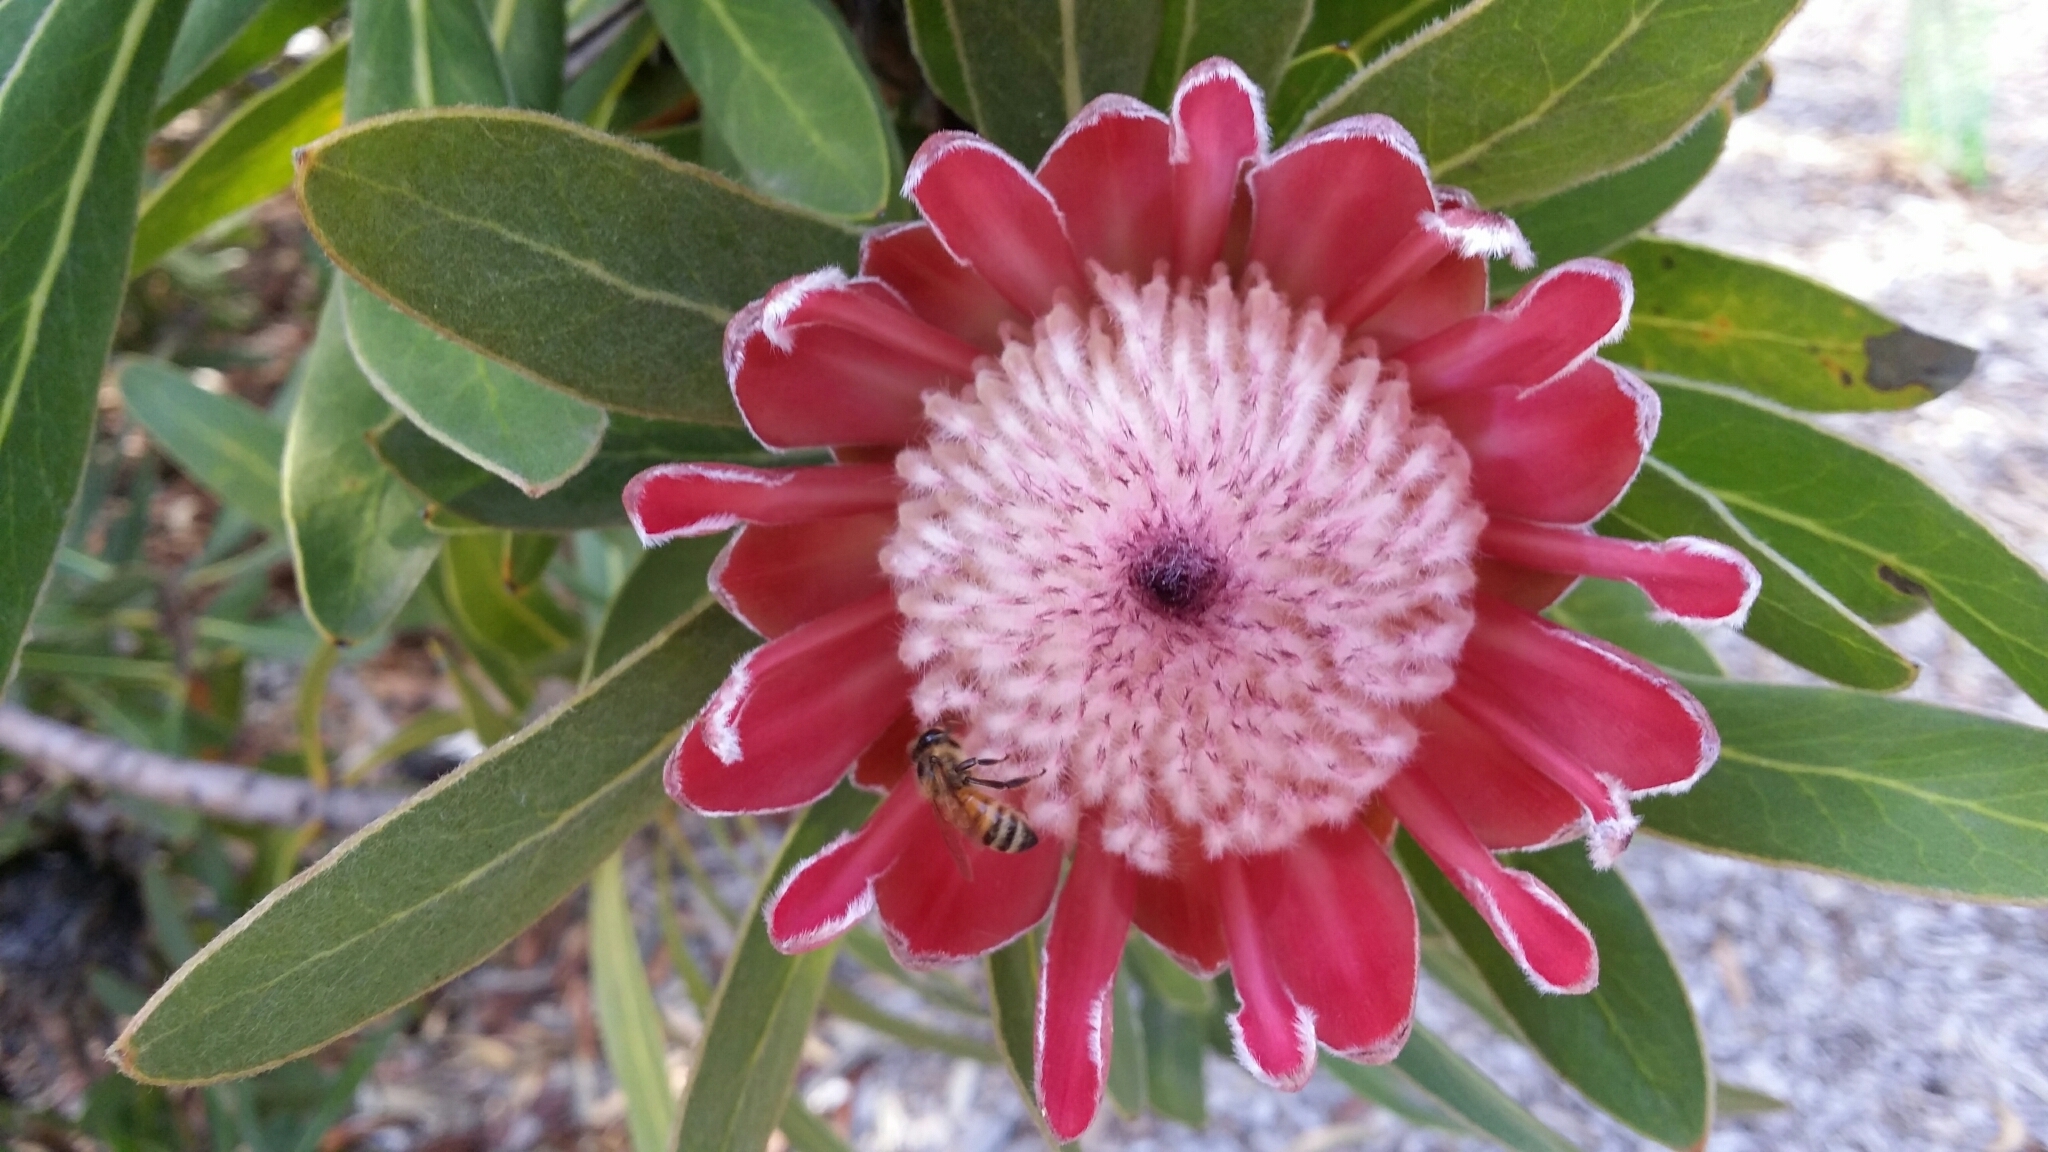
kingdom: Animalia
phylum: Arthropoda
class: Insecta
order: Hymenoptera
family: Apidae
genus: Apis
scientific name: Apis mellifera
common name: Honey bee
